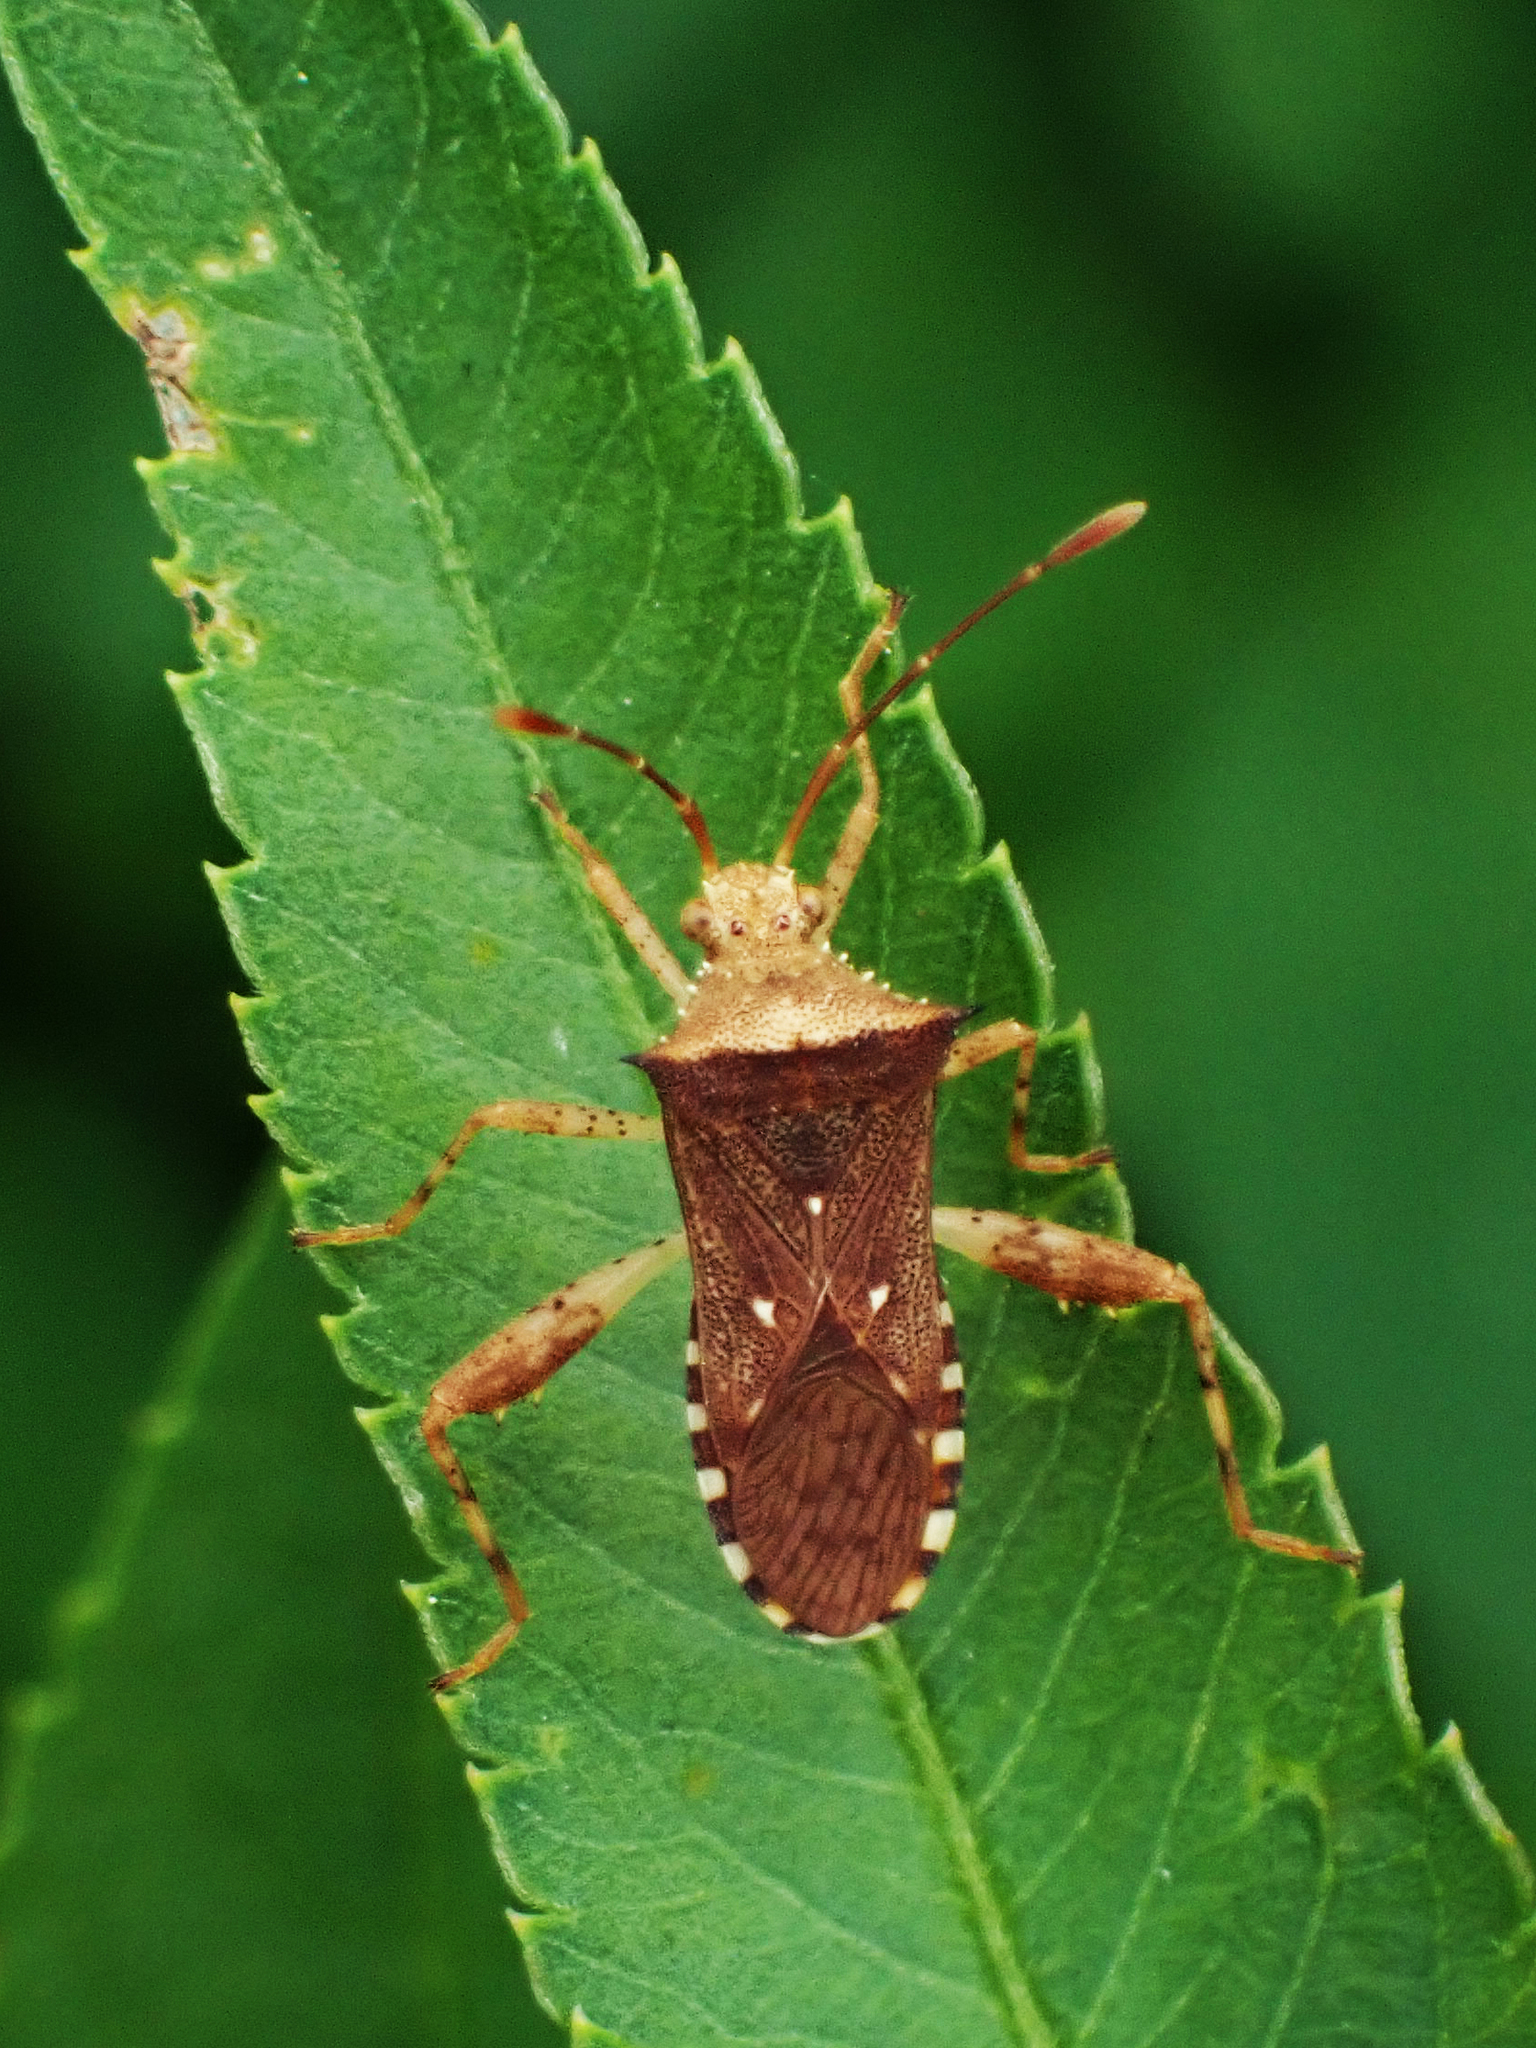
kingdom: Animalia
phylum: Arthropoda
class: Insecta
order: Hemiptera
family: Coreidae
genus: Zicca
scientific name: Zicca taeniola
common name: Leaf-footed bug
